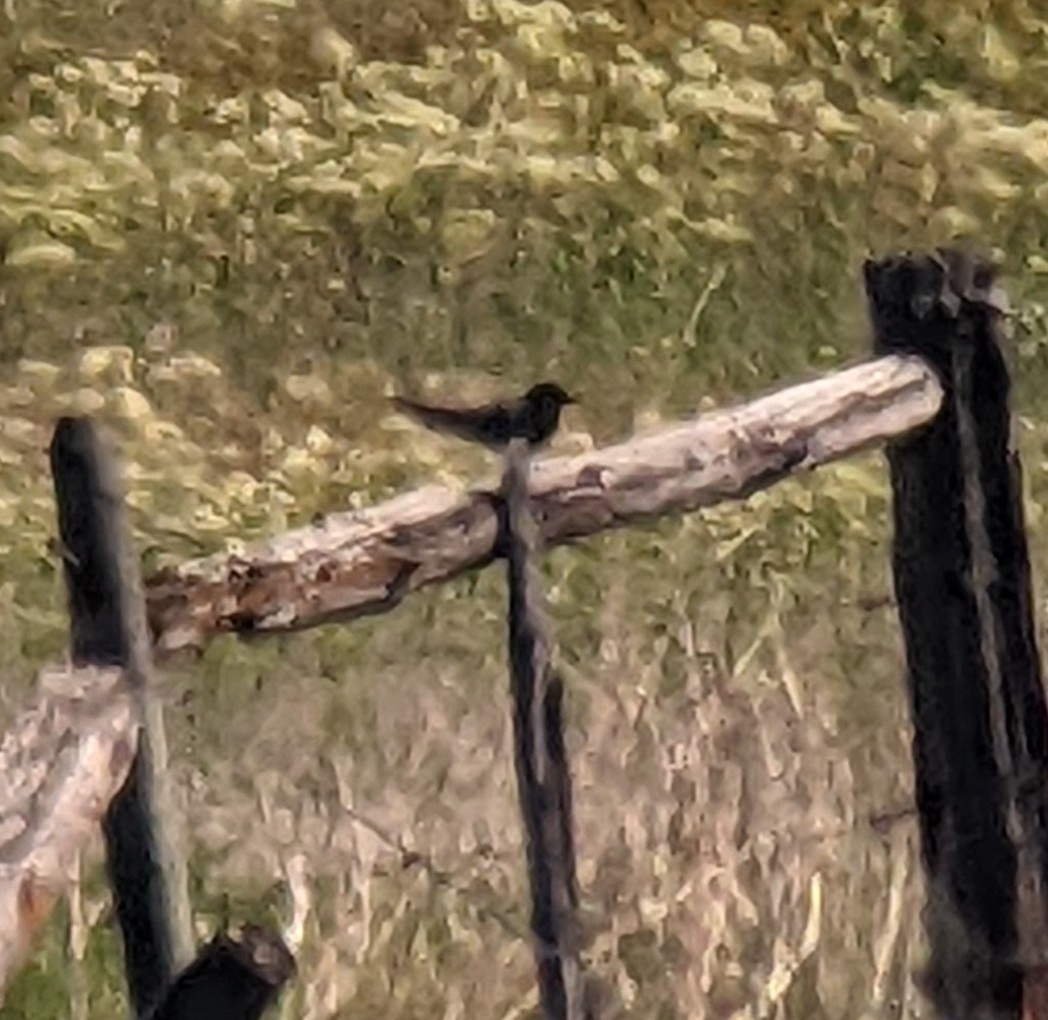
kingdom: Animalia
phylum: Chordata
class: Aves
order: Charadriiformes
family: Laridae
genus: Chlidonias
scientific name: Chlidonias niger
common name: Black tern
